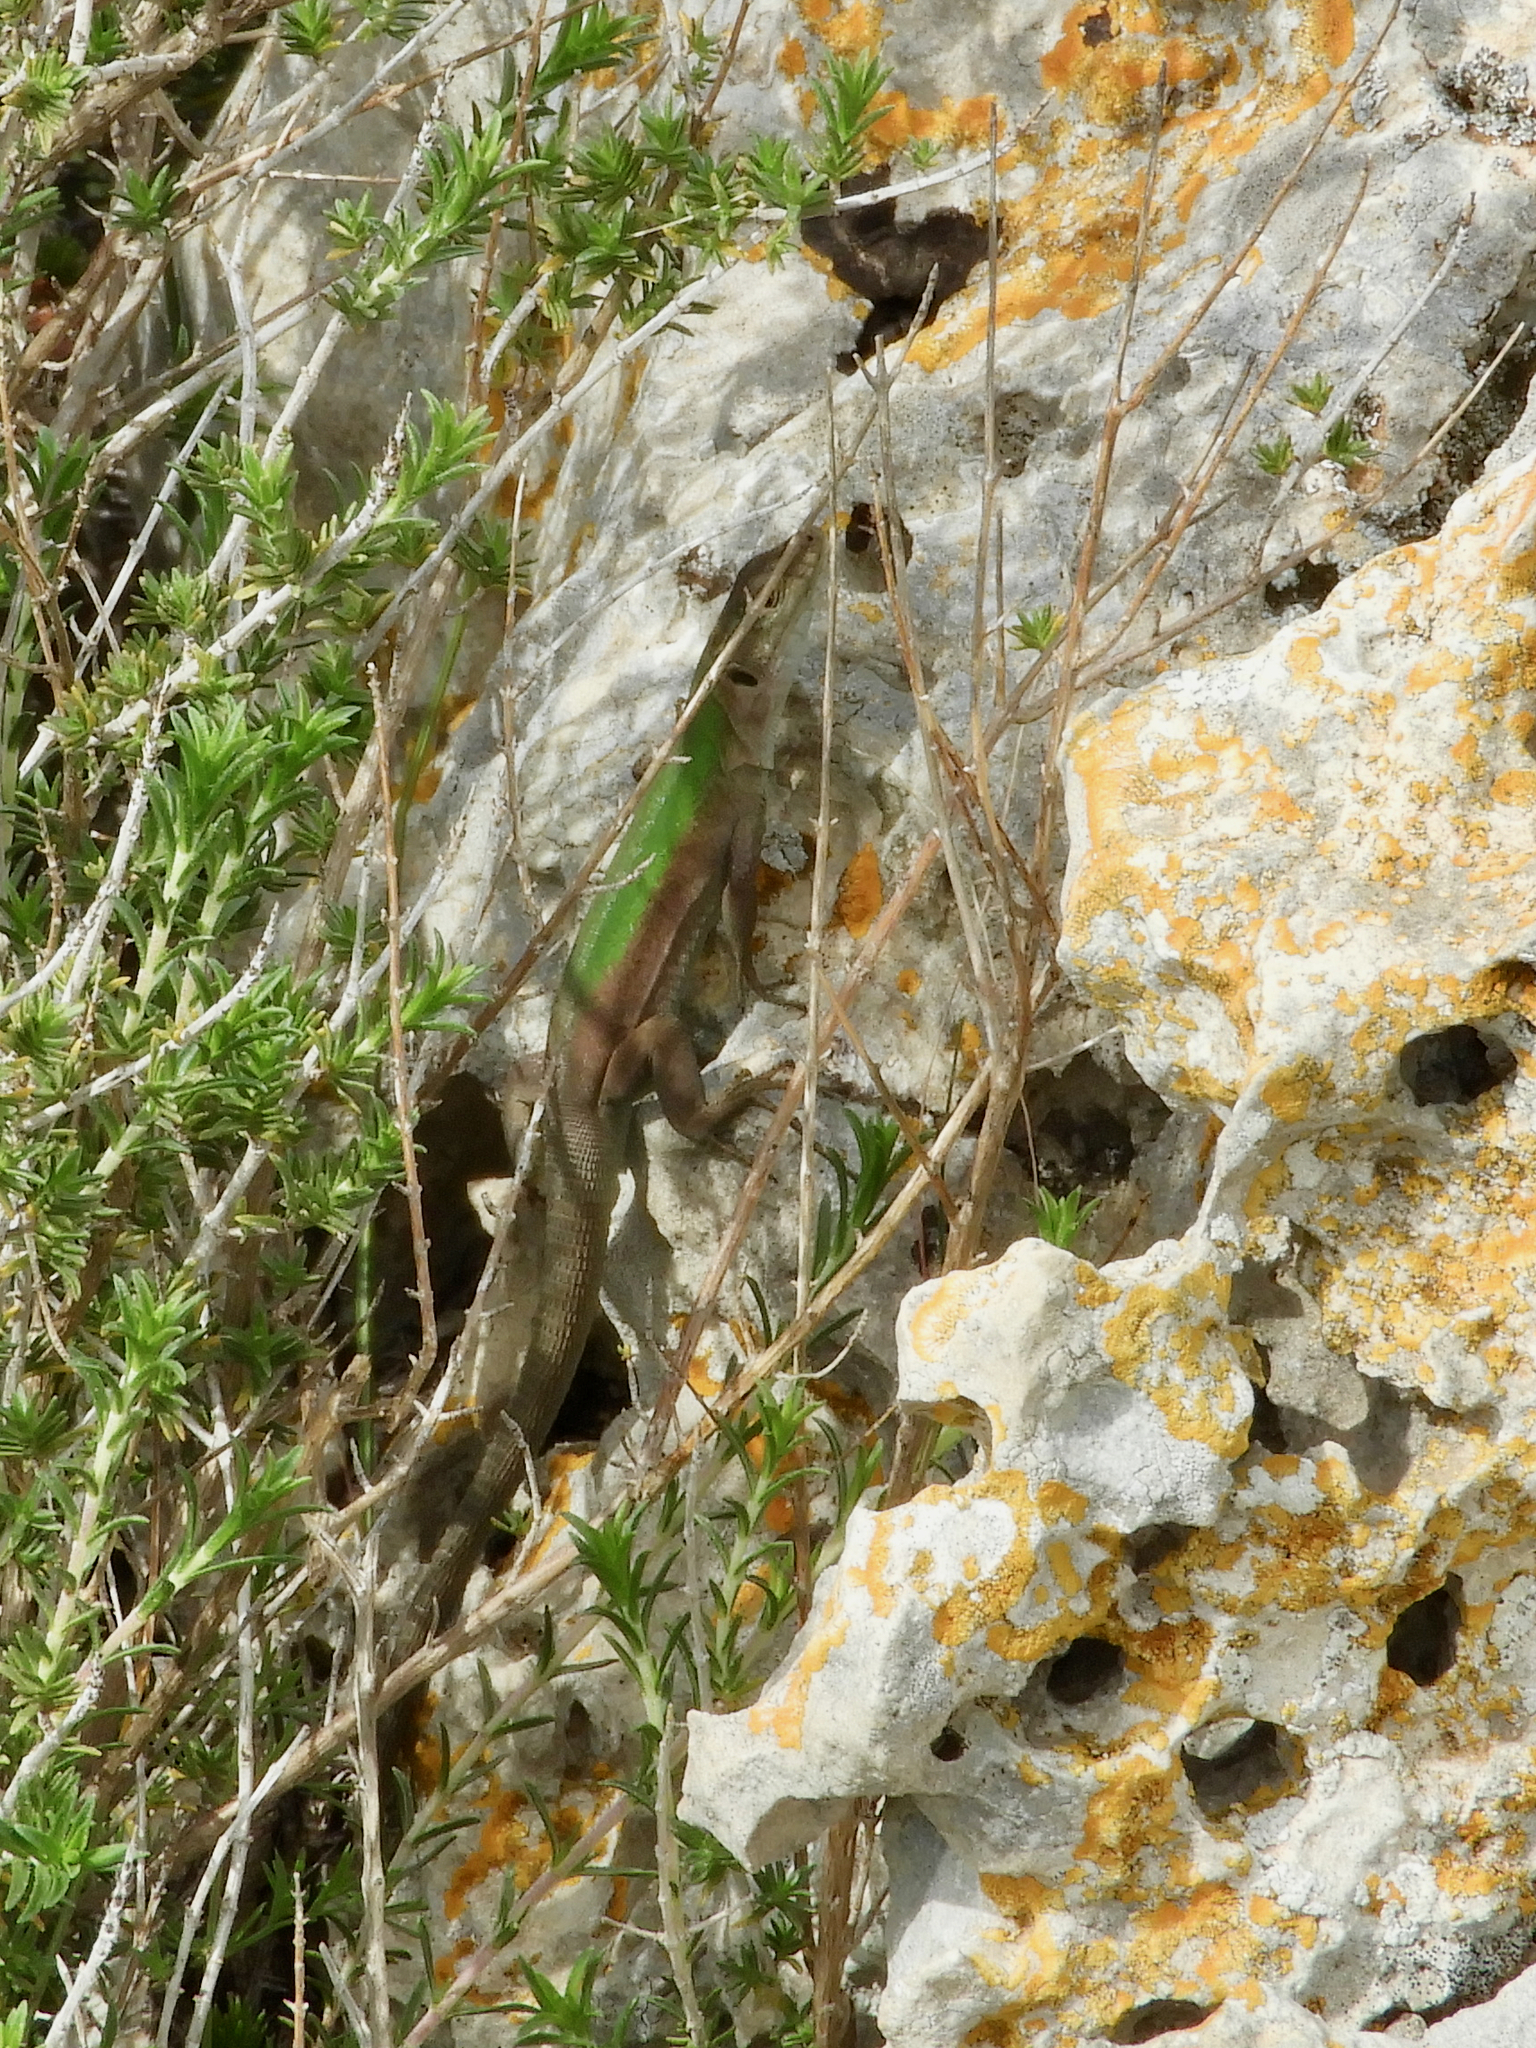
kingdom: Animalia
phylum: Chordata
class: Squamata
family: Lacertidae
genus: Podarcis
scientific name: Podarcis siculus
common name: Italian wall lizard
